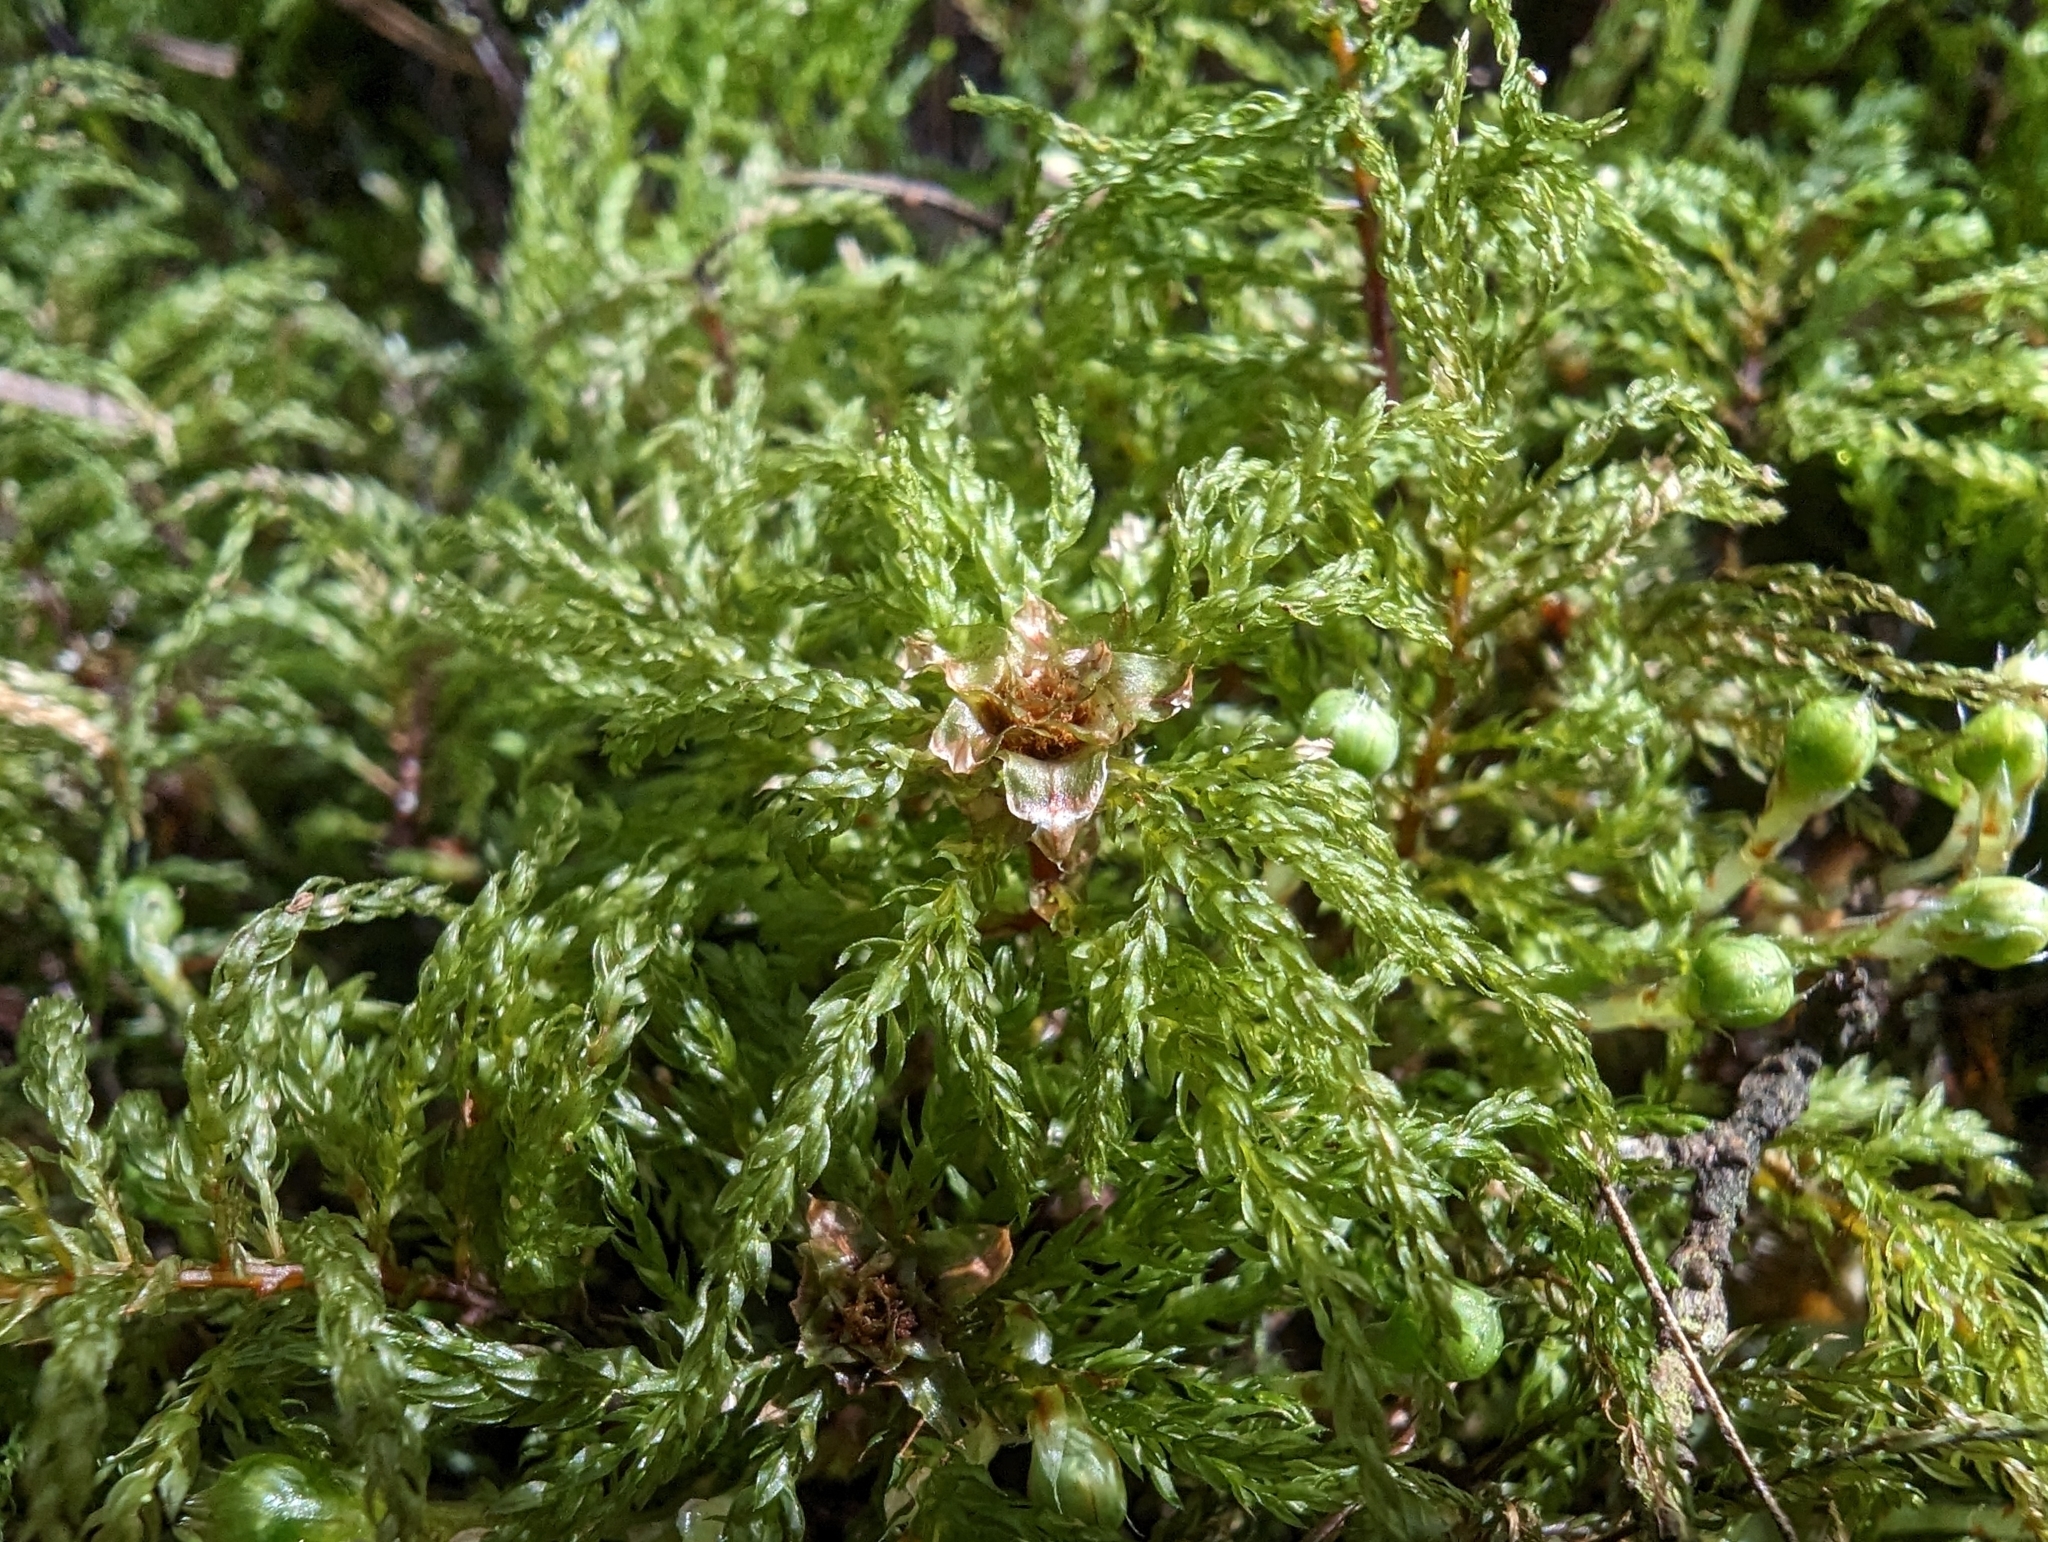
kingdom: Plantae
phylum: Bryophyta
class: Bryopsida
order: Bryales
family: Mniaceae
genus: Leucolepis
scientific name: Leucolepis acanthoneura
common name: Leucolepis umbrella moss
